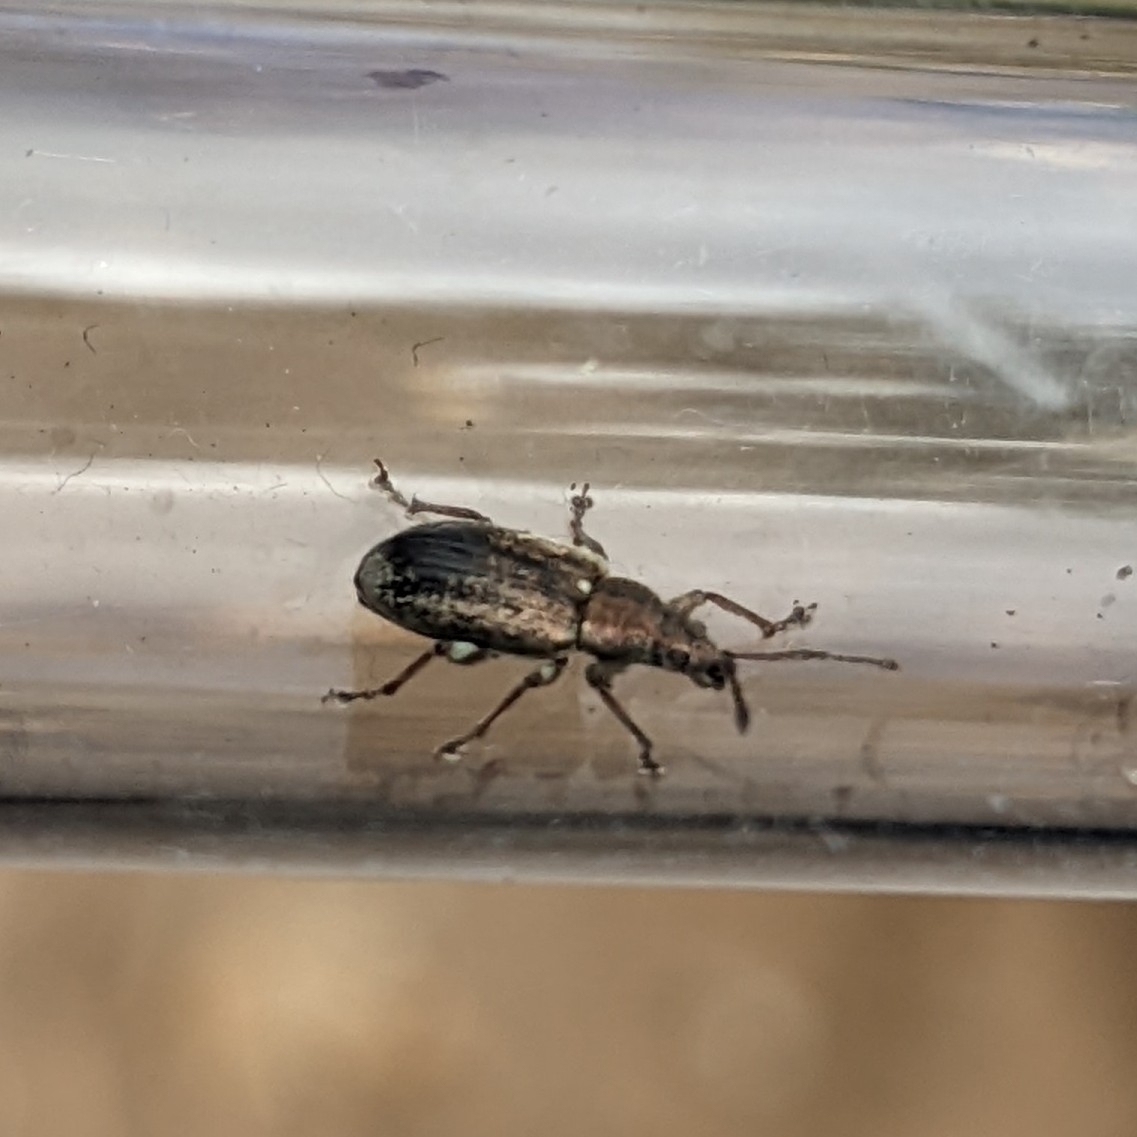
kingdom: Animalia
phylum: Arthropoda
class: Insecta
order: Coleoptera
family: Curculionidae
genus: Phyllobius
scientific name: Phyllobius pyri
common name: Common leaf weevil
